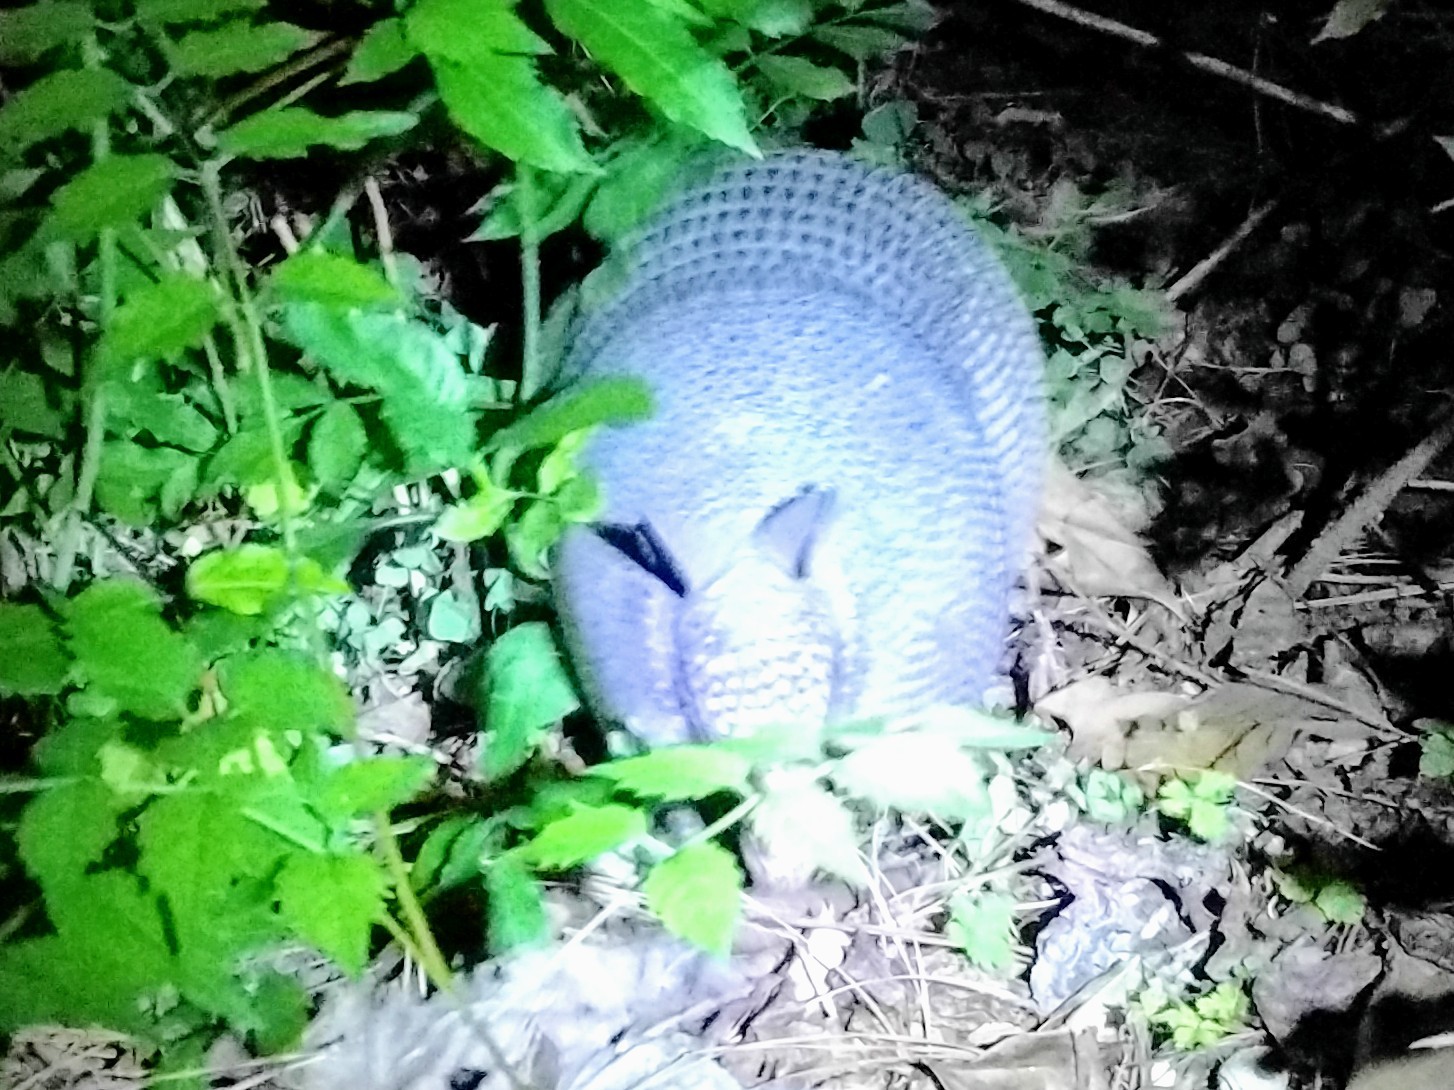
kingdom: Animalia
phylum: Chordata
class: Mammalia
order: Cingulata
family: Dasypodidae
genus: Dasypus
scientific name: Dasypus novemcinctus
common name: Nine-banded armadillo
